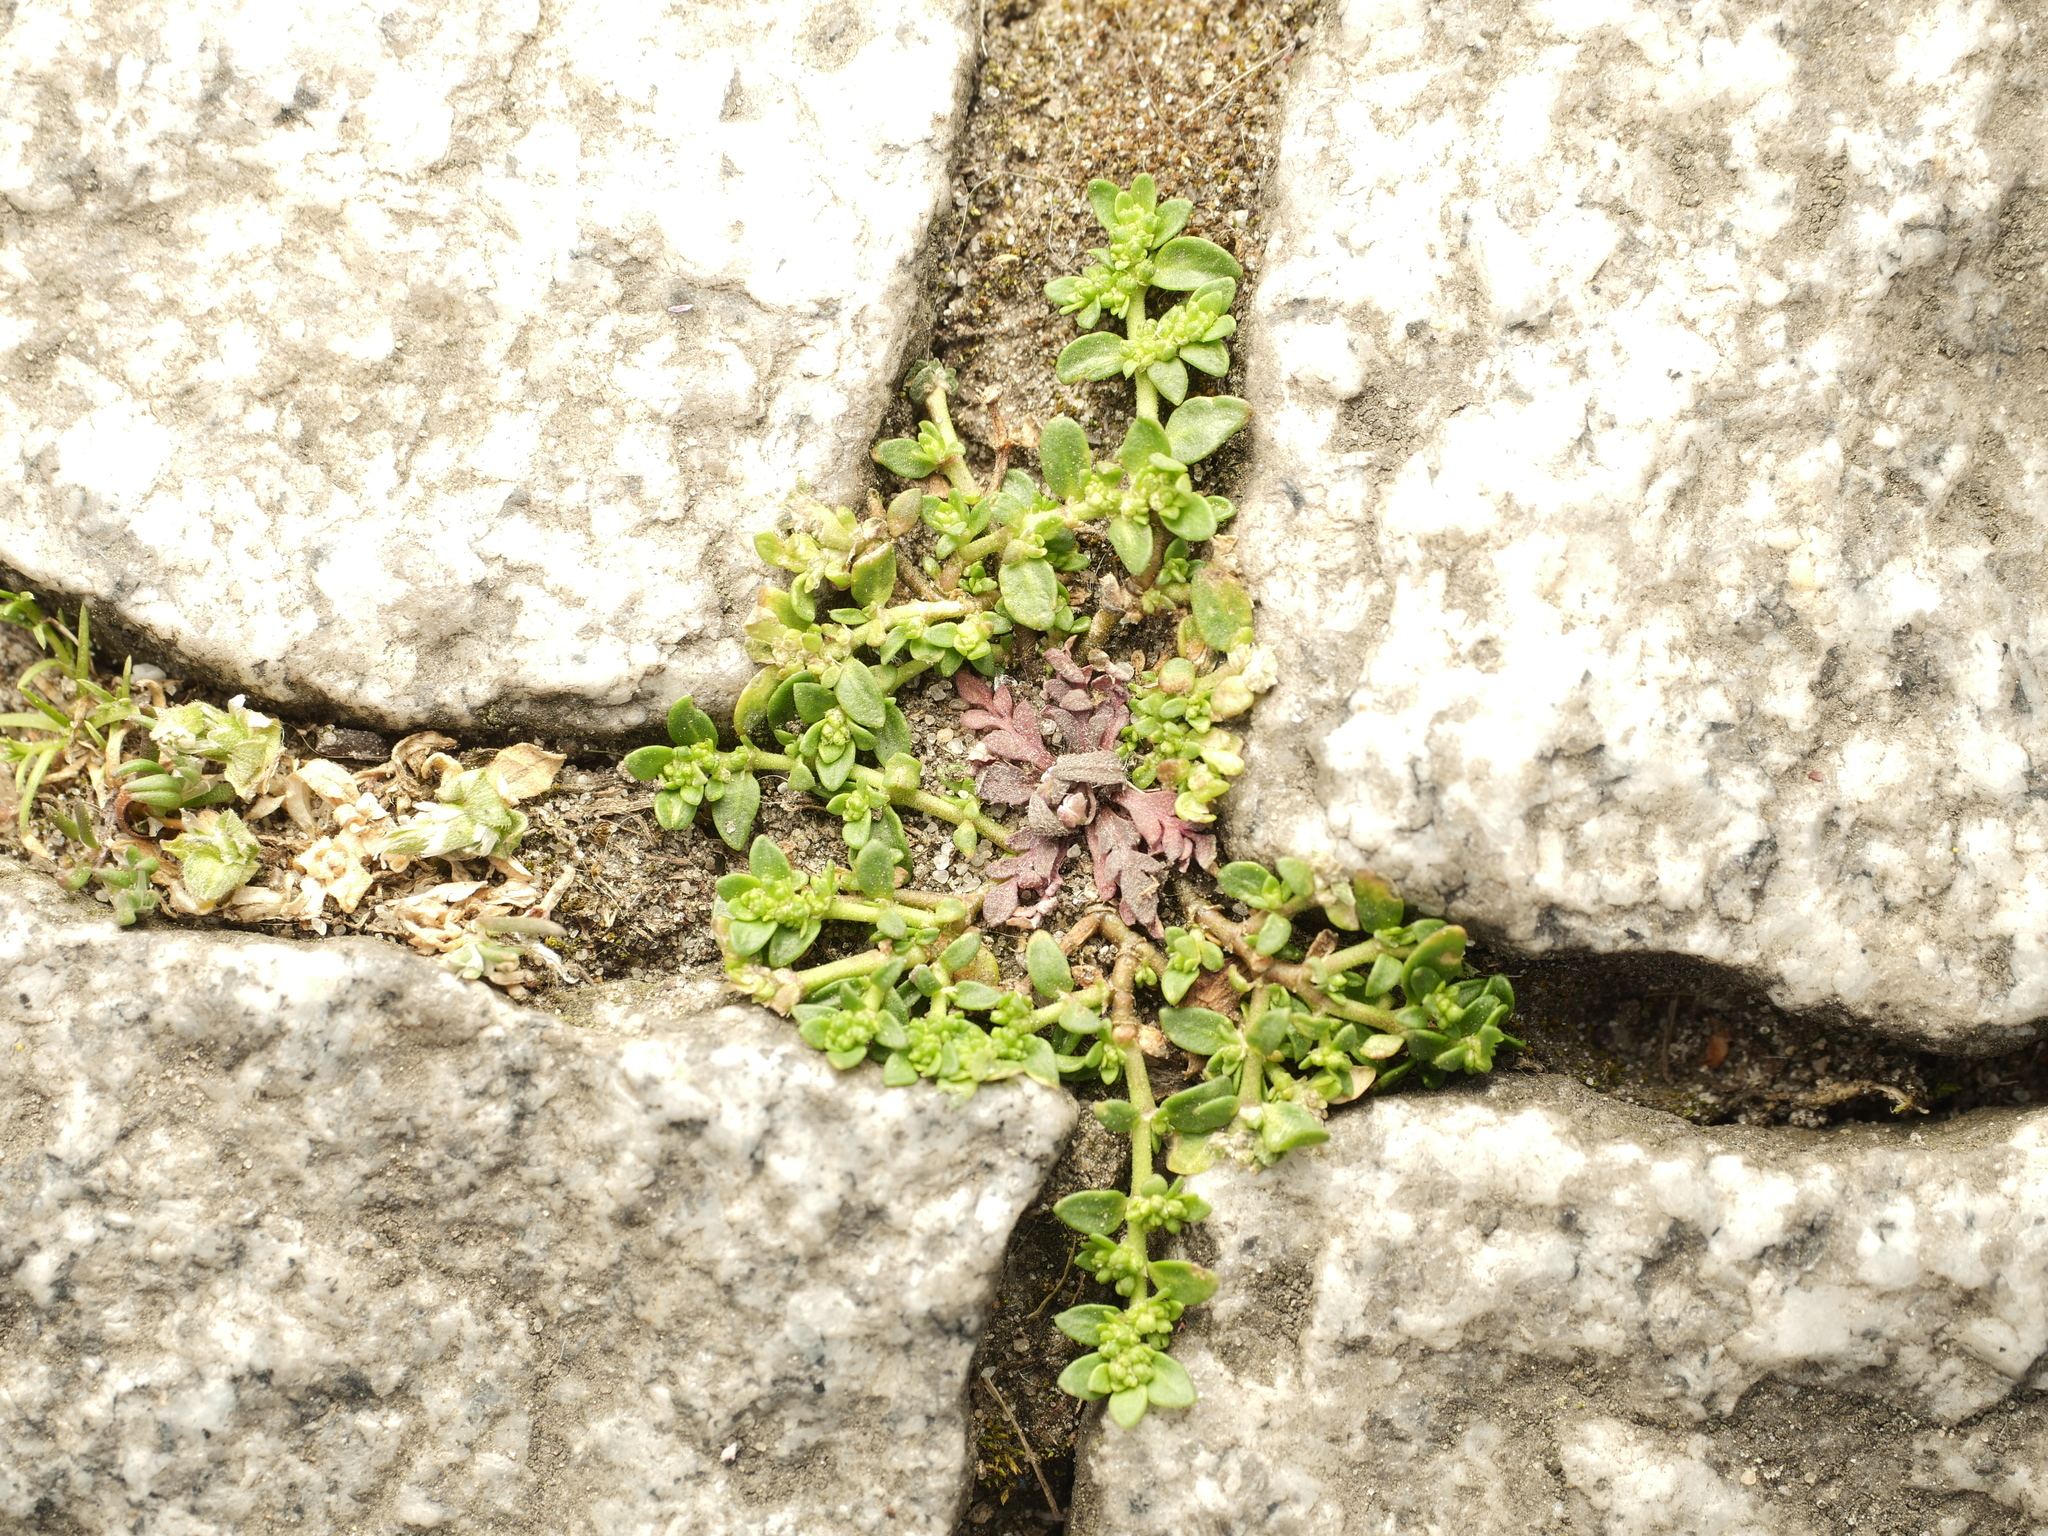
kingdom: Plantae
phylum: Tracheophyta
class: Magnoliopsida
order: Caryophyllales
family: Caryophyllaceae
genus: Herniaria
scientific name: Herniaria glabra
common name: Smooth rupturewort
